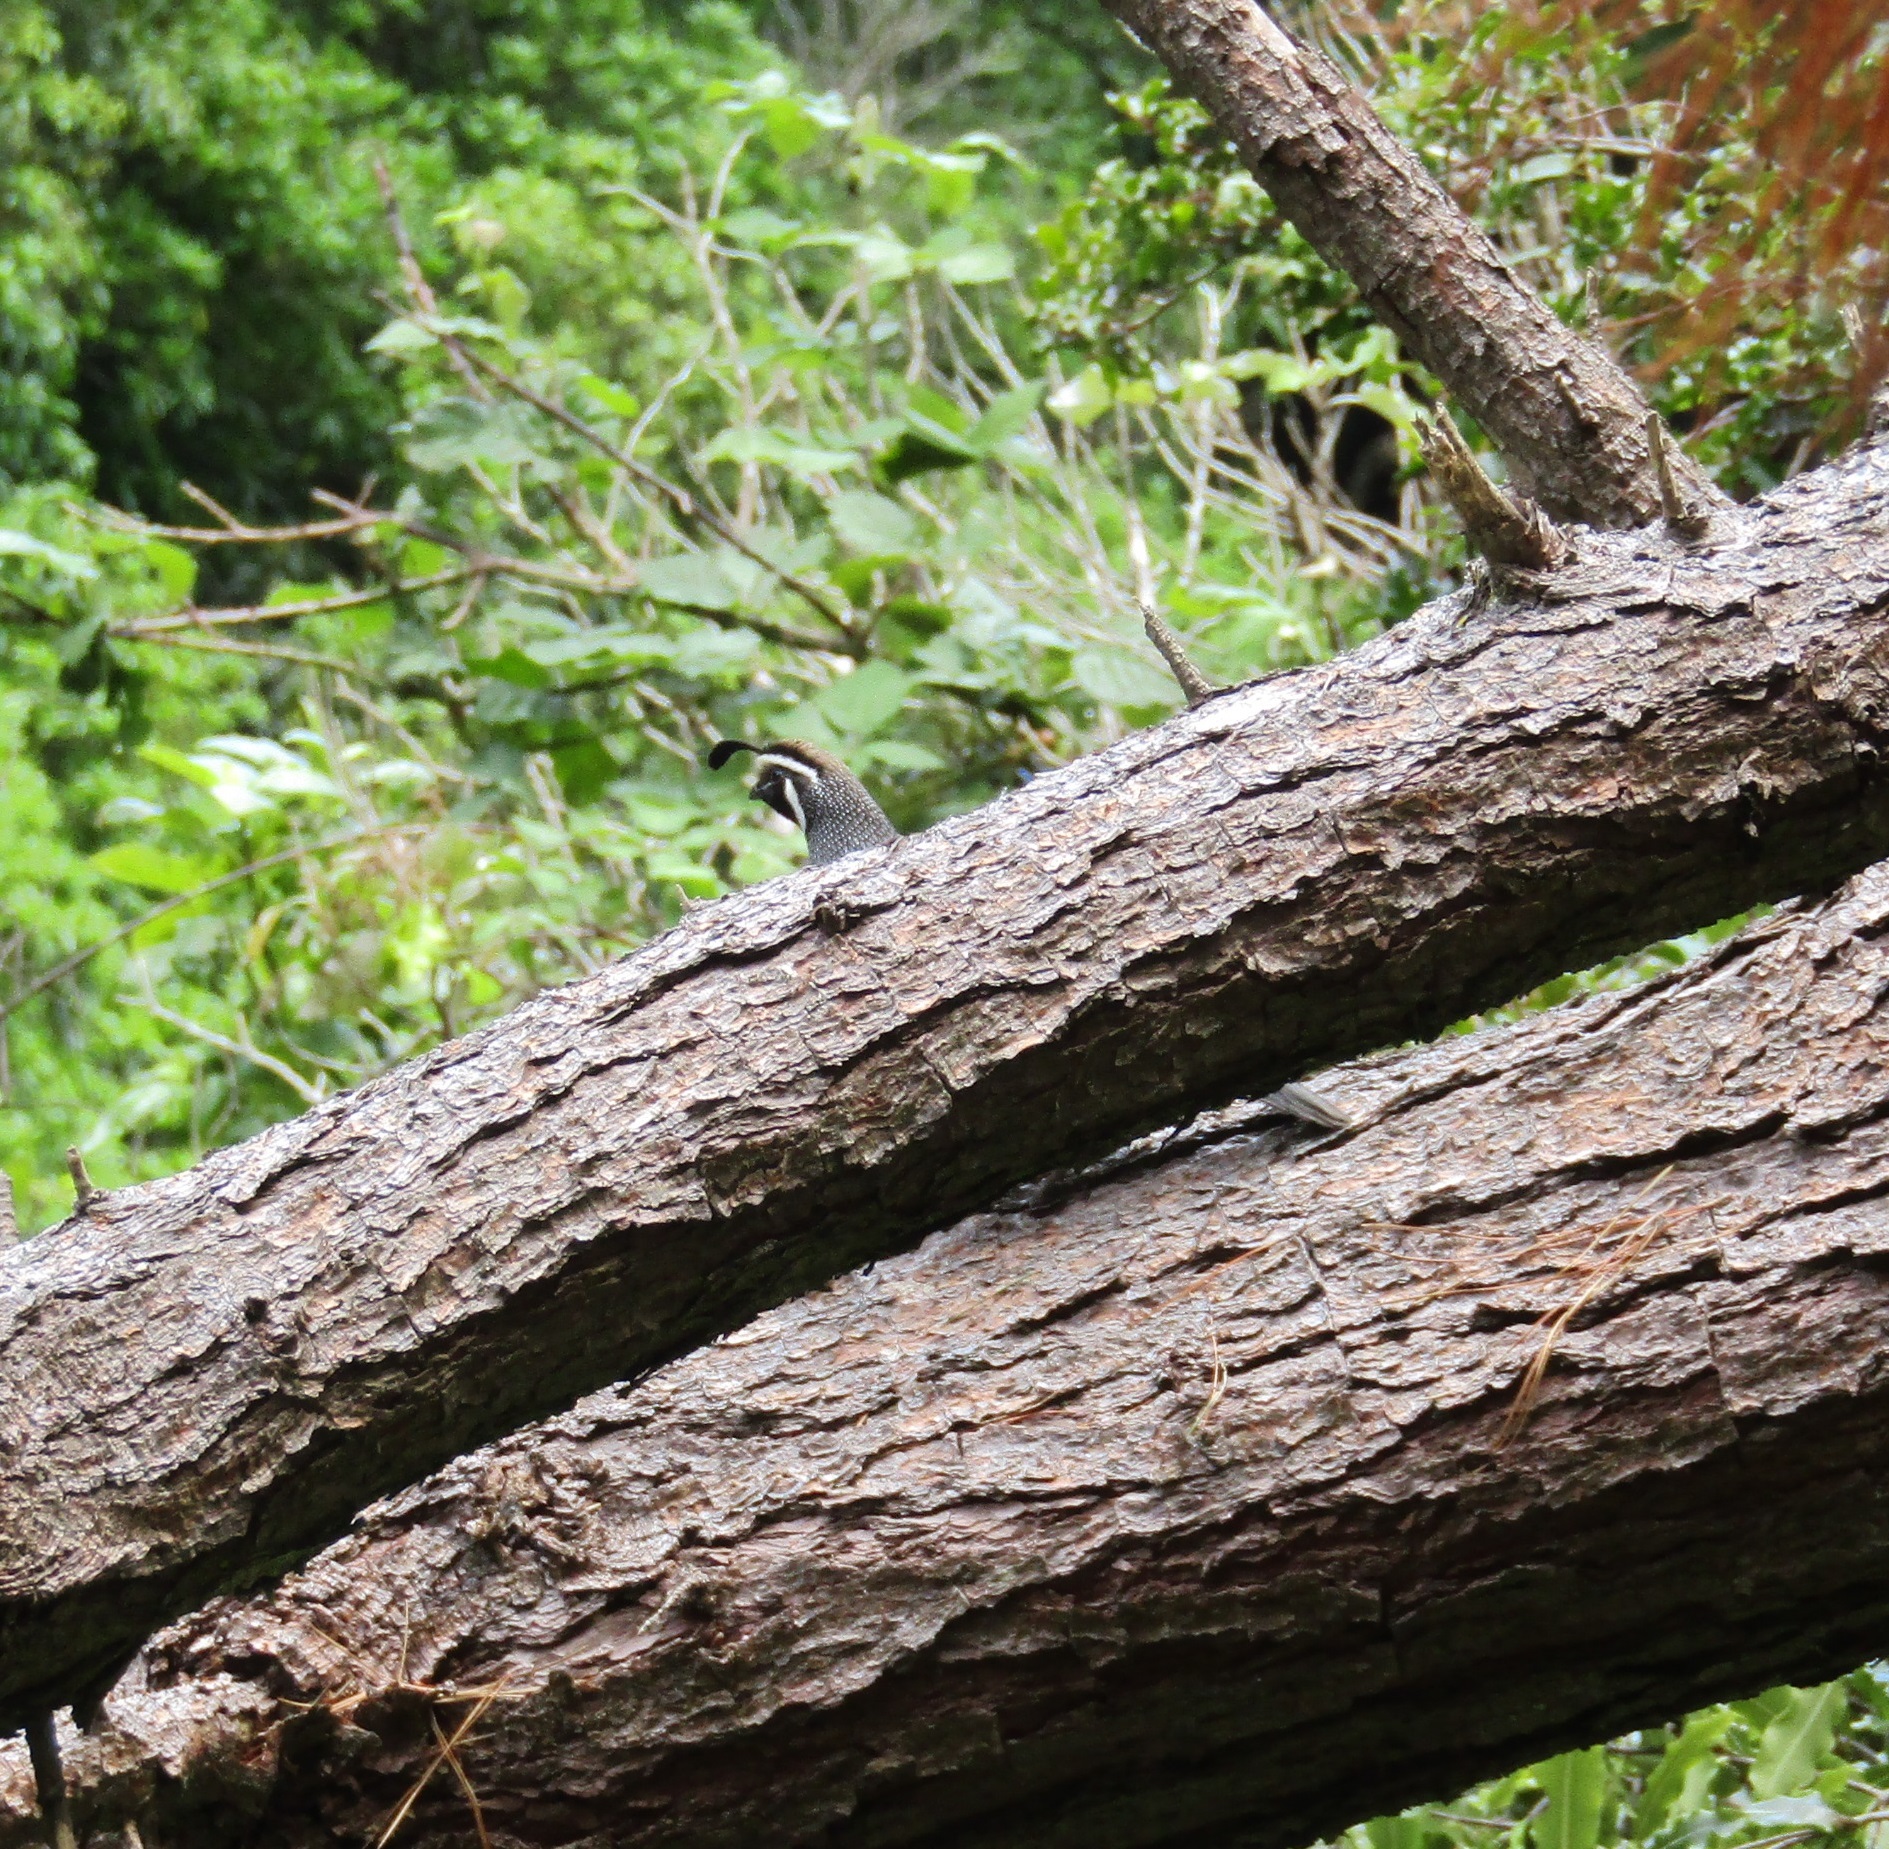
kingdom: Animalia
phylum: Chordata
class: Aves
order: Galliformes
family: Odontophoridae
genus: Callipepla
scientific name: Callipepla californica
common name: California quail
